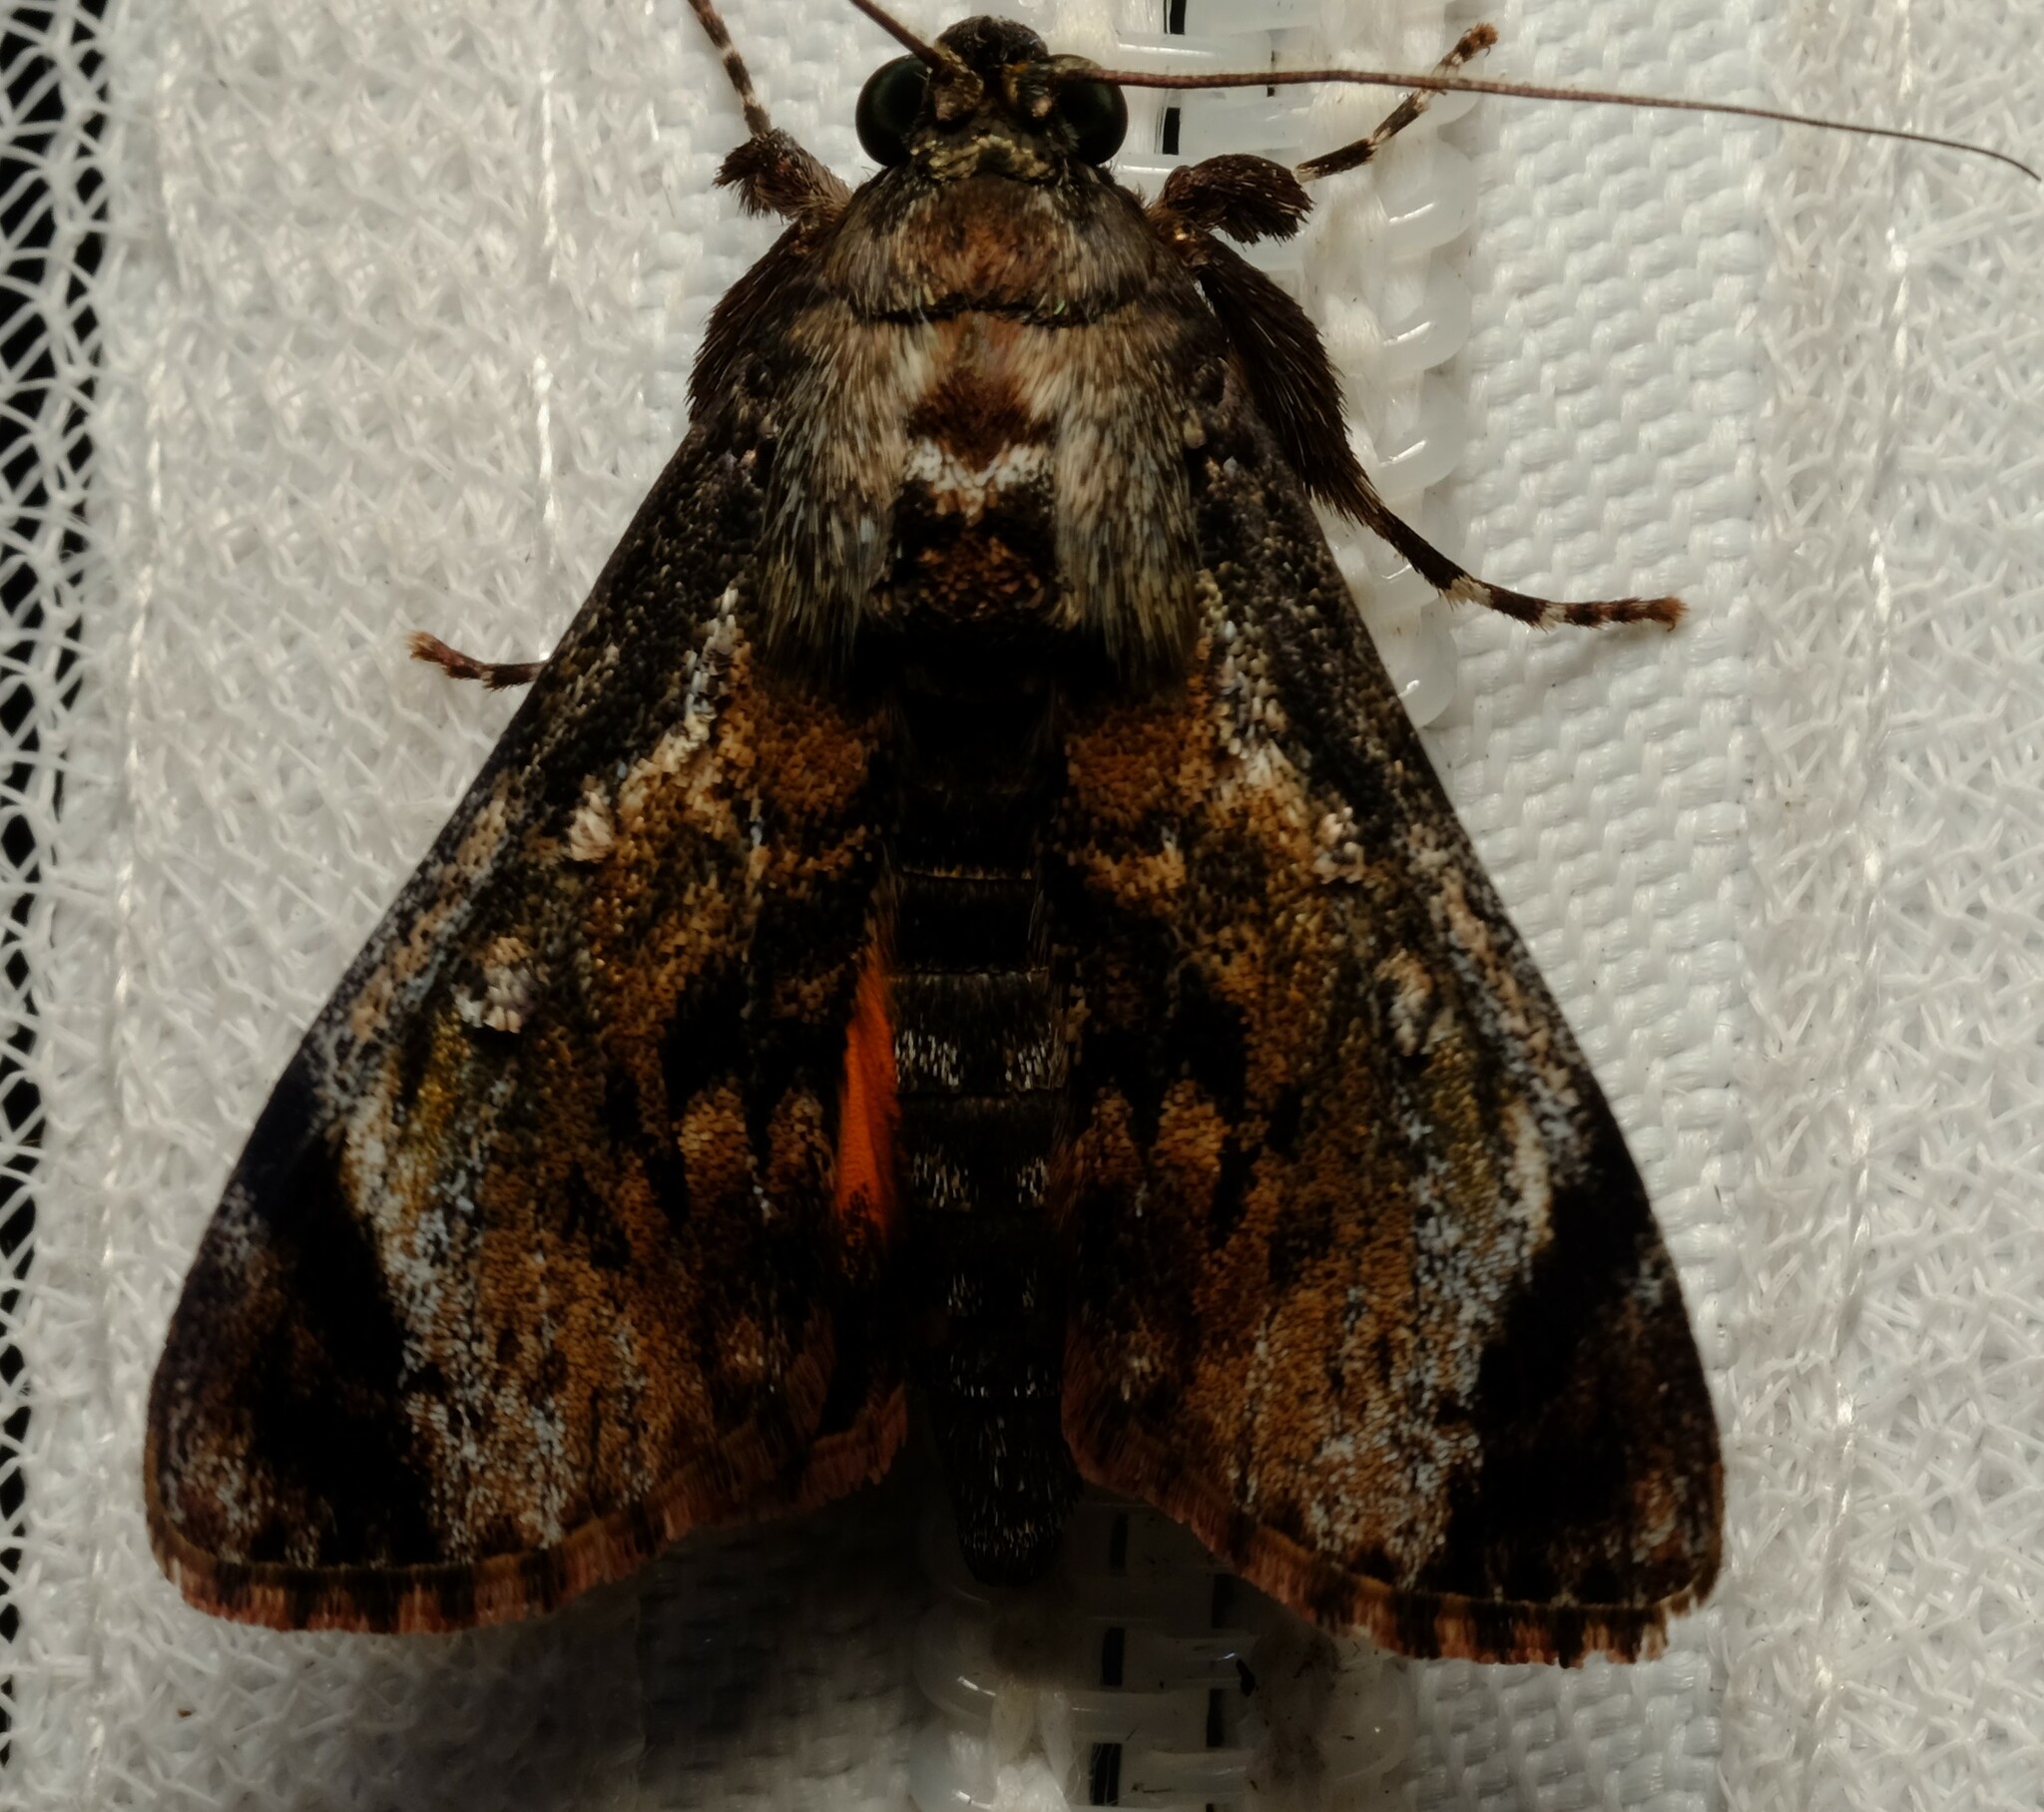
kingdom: Animalia
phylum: Arthropoda
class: Insecta
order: Lepidoptera
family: Pyralidae
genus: Salma
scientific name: Salma pyrastis
